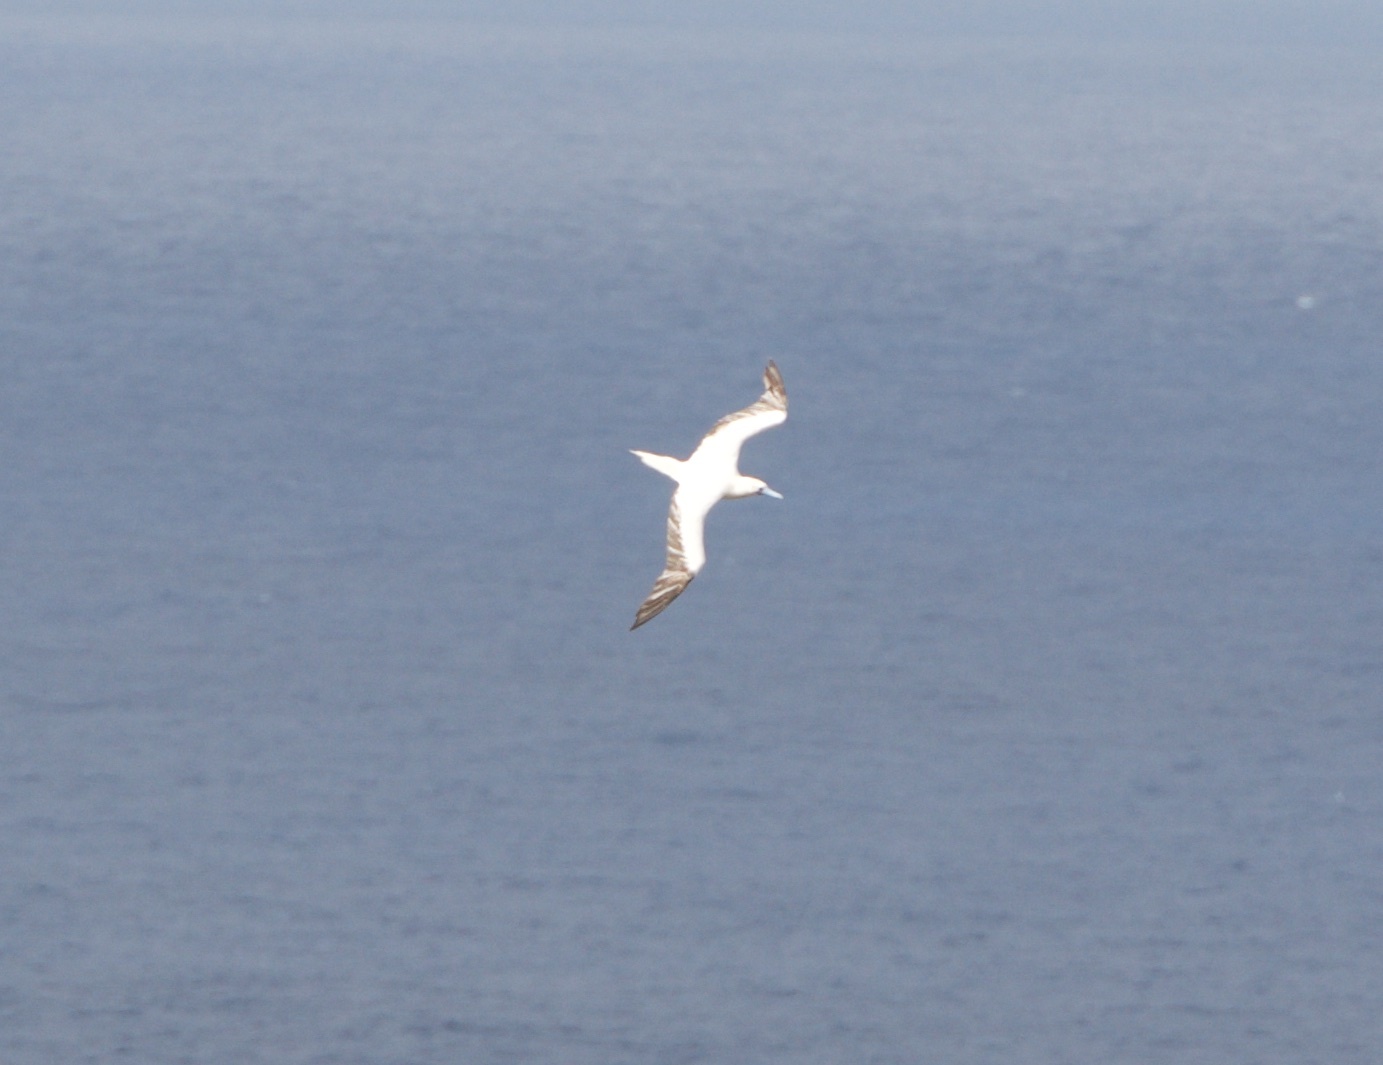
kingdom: Animalia
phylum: Chordata
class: Aves
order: Suliformes
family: Sulidae
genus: Sula
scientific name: Sula sula
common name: Red-footed booby
